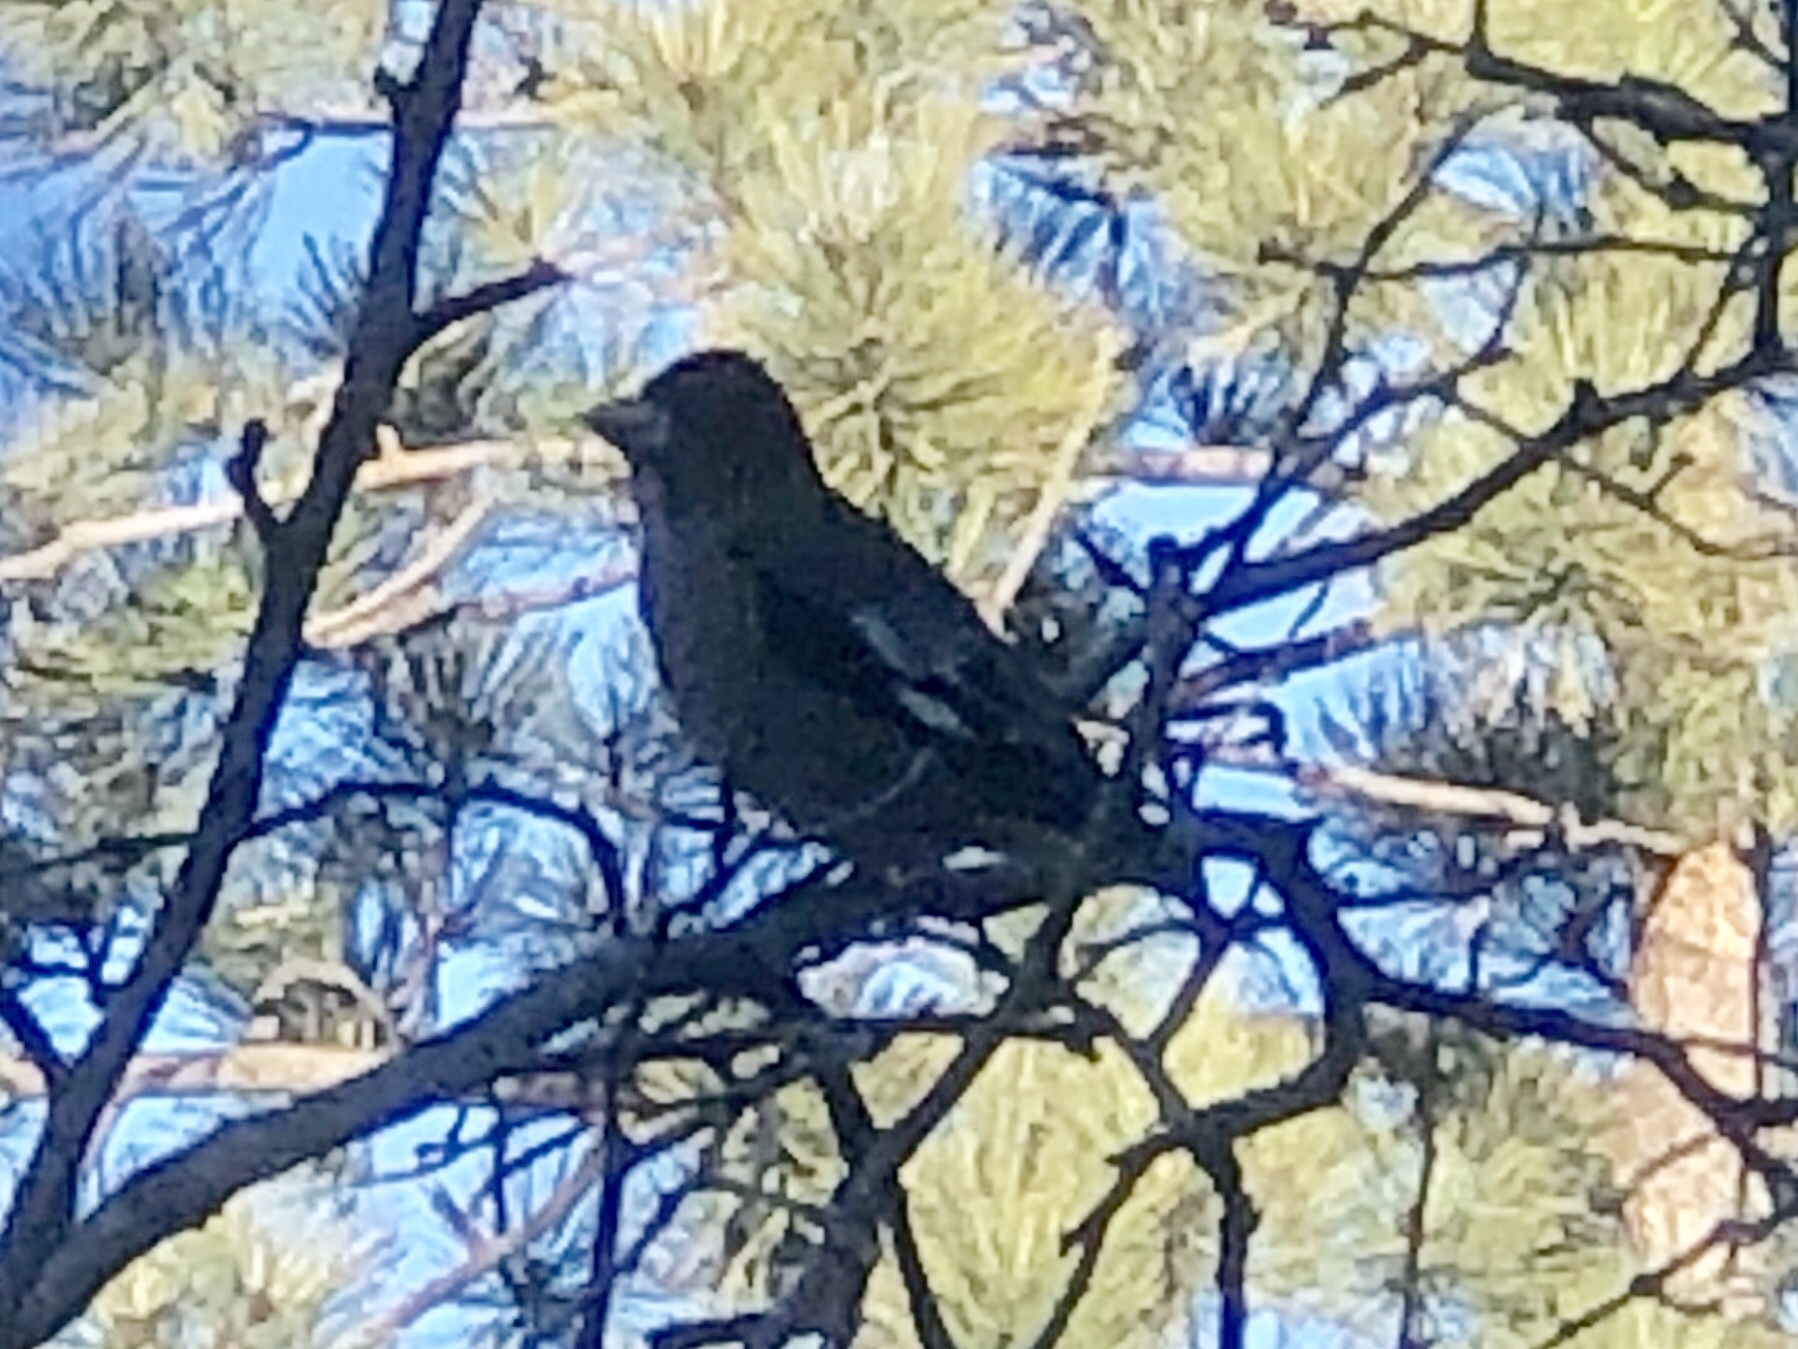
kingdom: Animalia
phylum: Chordata
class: Aves
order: Passeriformes
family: Fringillidae
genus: Hesperiphona
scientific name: Hesperiphona vespertina
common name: Evening grosbeak
